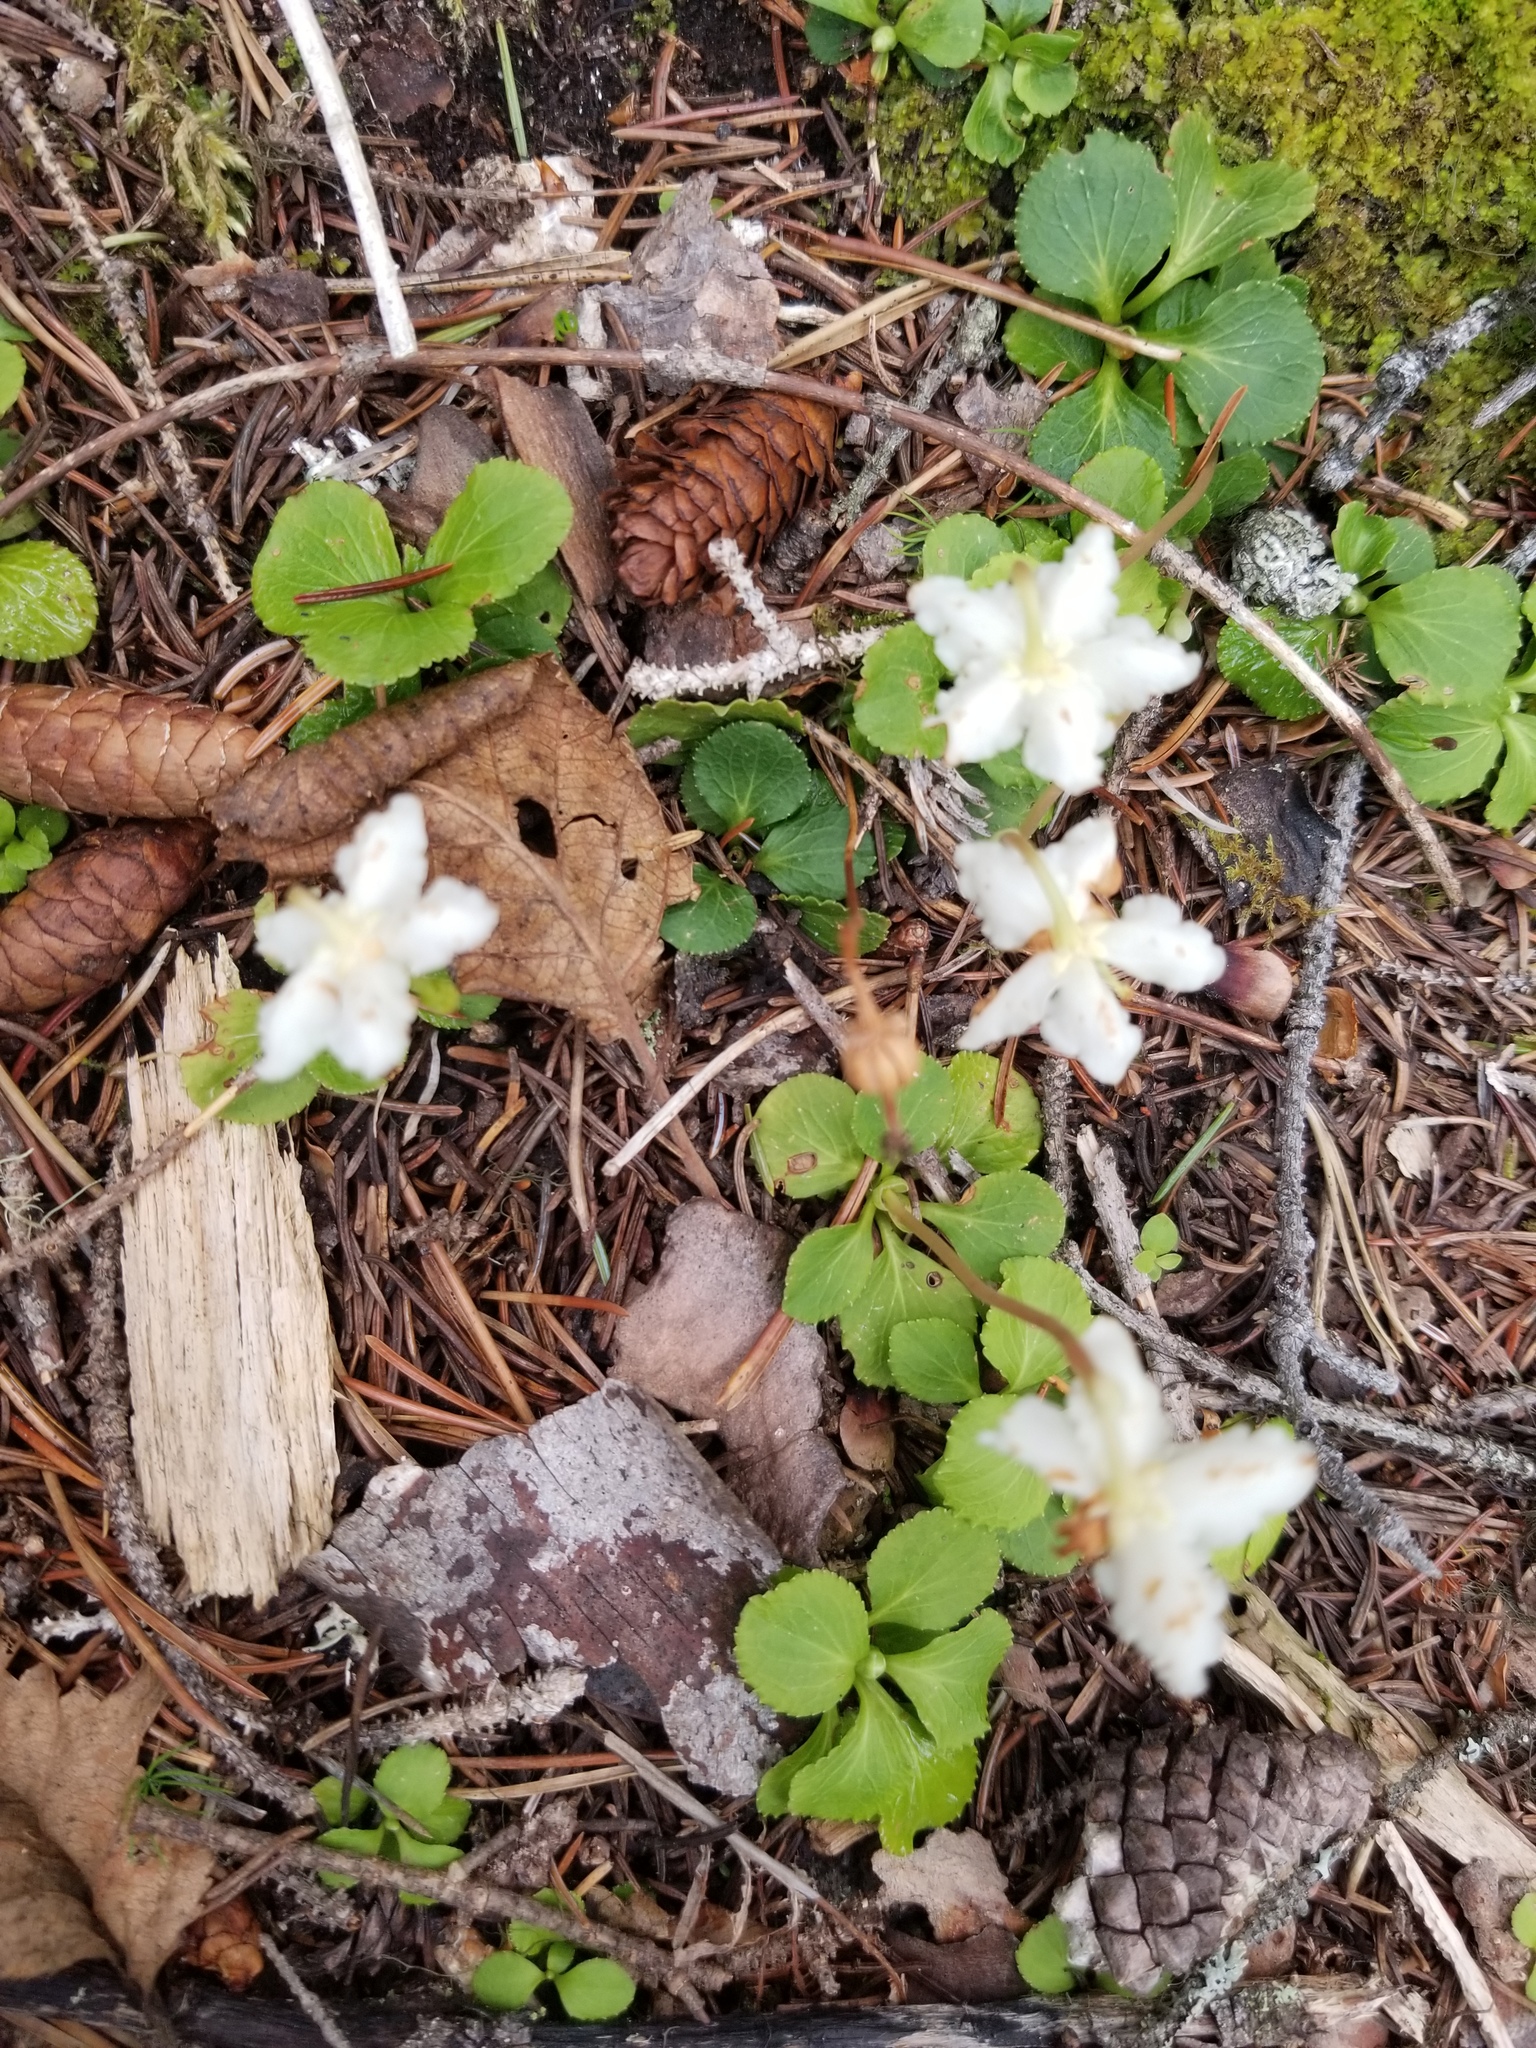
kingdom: Plantae
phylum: Tracheophyta
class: Magnoliopsida
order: Ericales
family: Ericaceae
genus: Moneses
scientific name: Moneses uniflora
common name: One-flowered wintergreen
